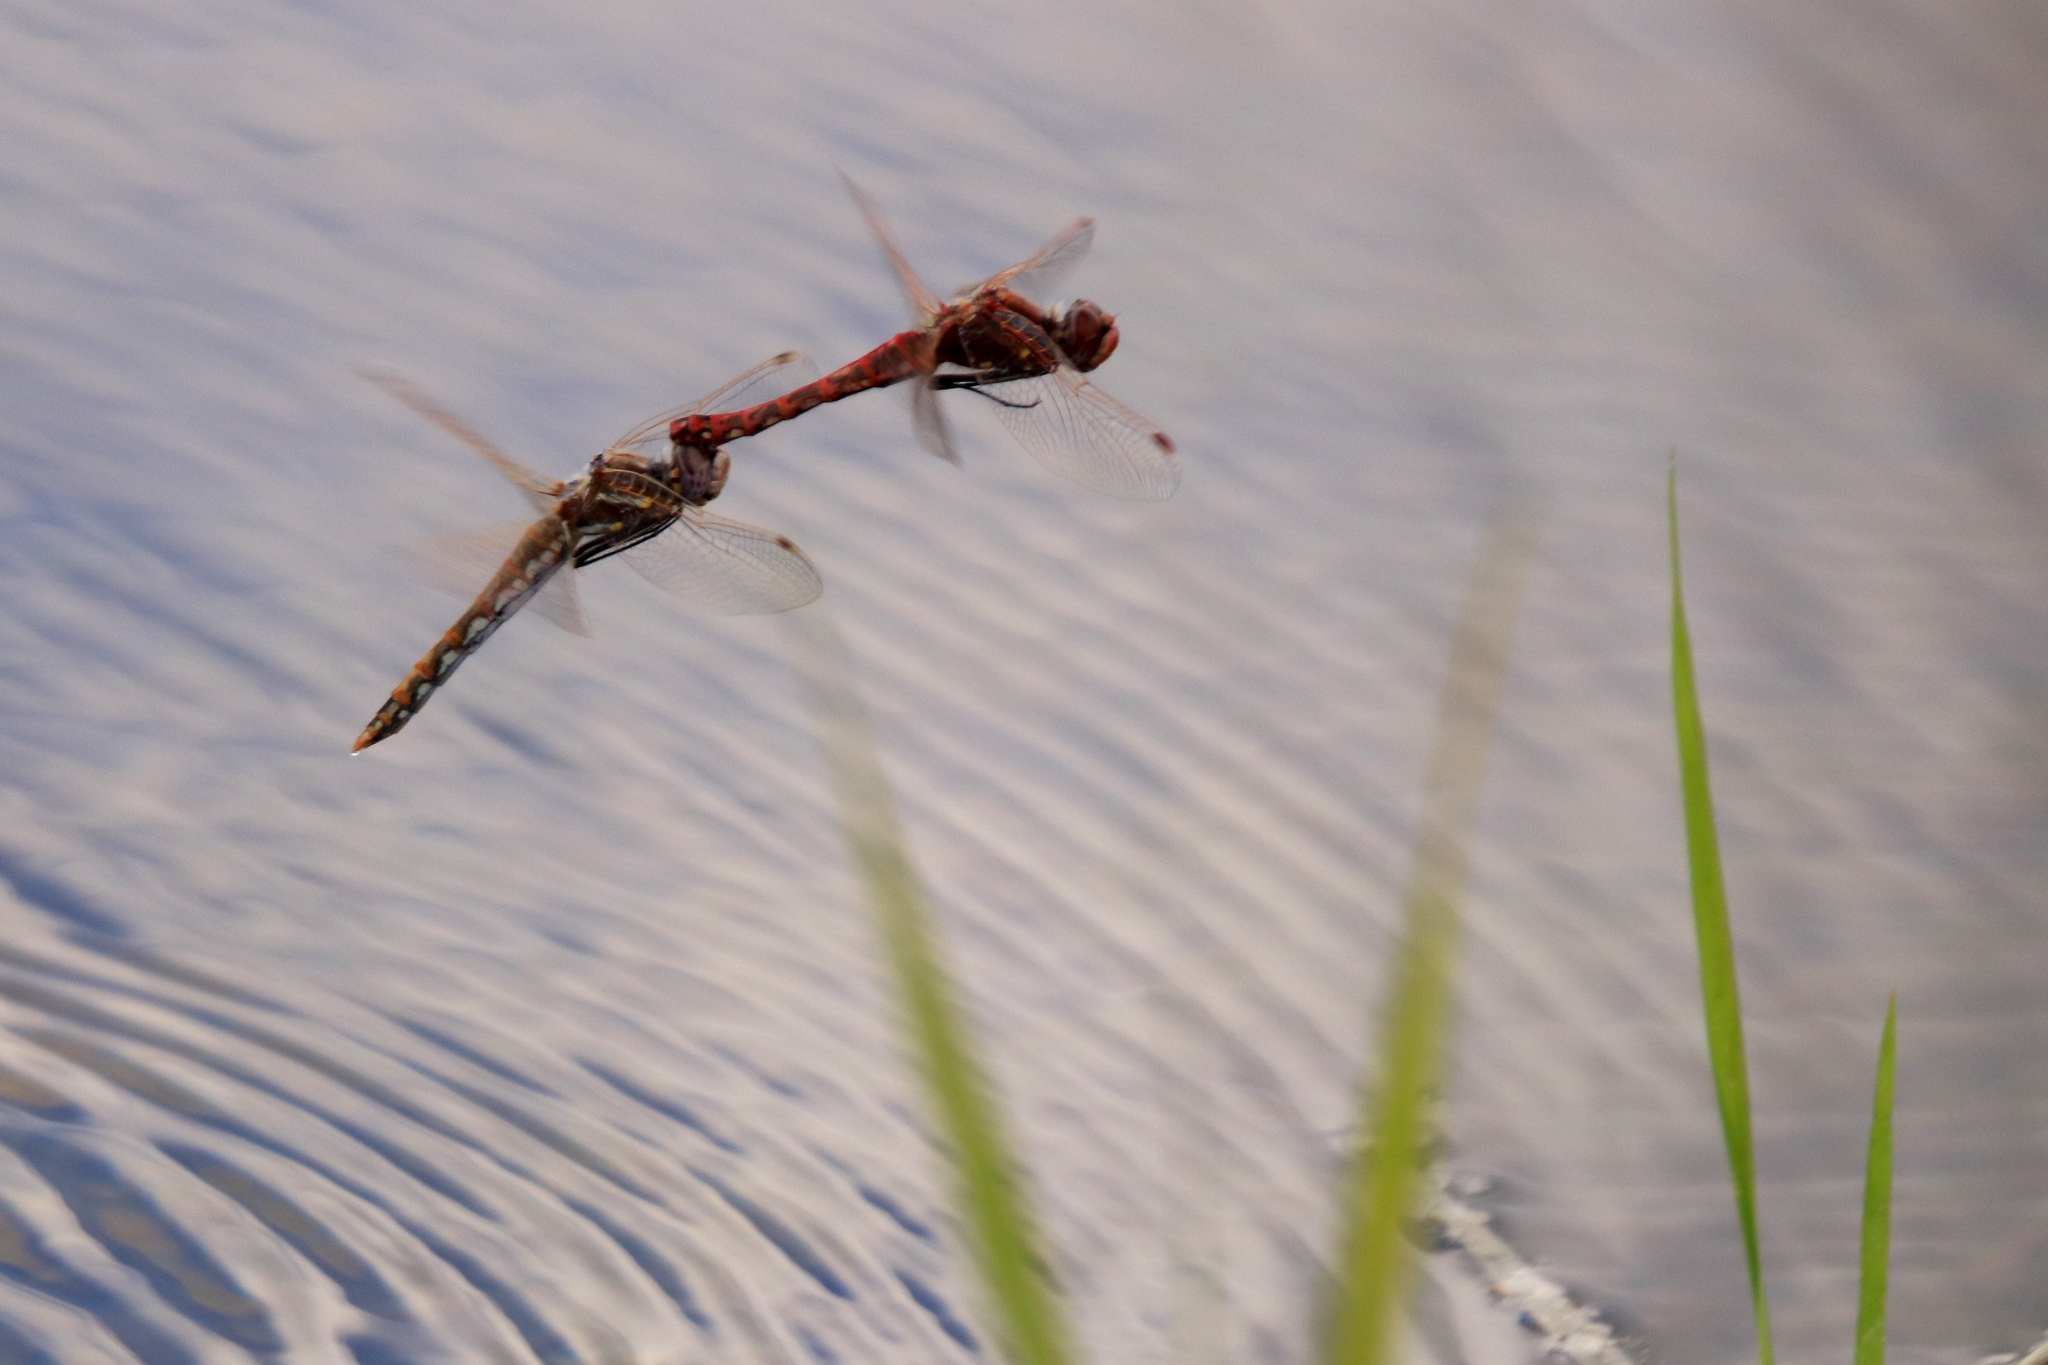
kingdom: Animalia
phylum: Arthropoda
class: Insecta
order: Odonata
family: Libellulidae
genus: Sympetrum
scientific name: Sympetrum corruptum
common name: Variegated meadowhawk
